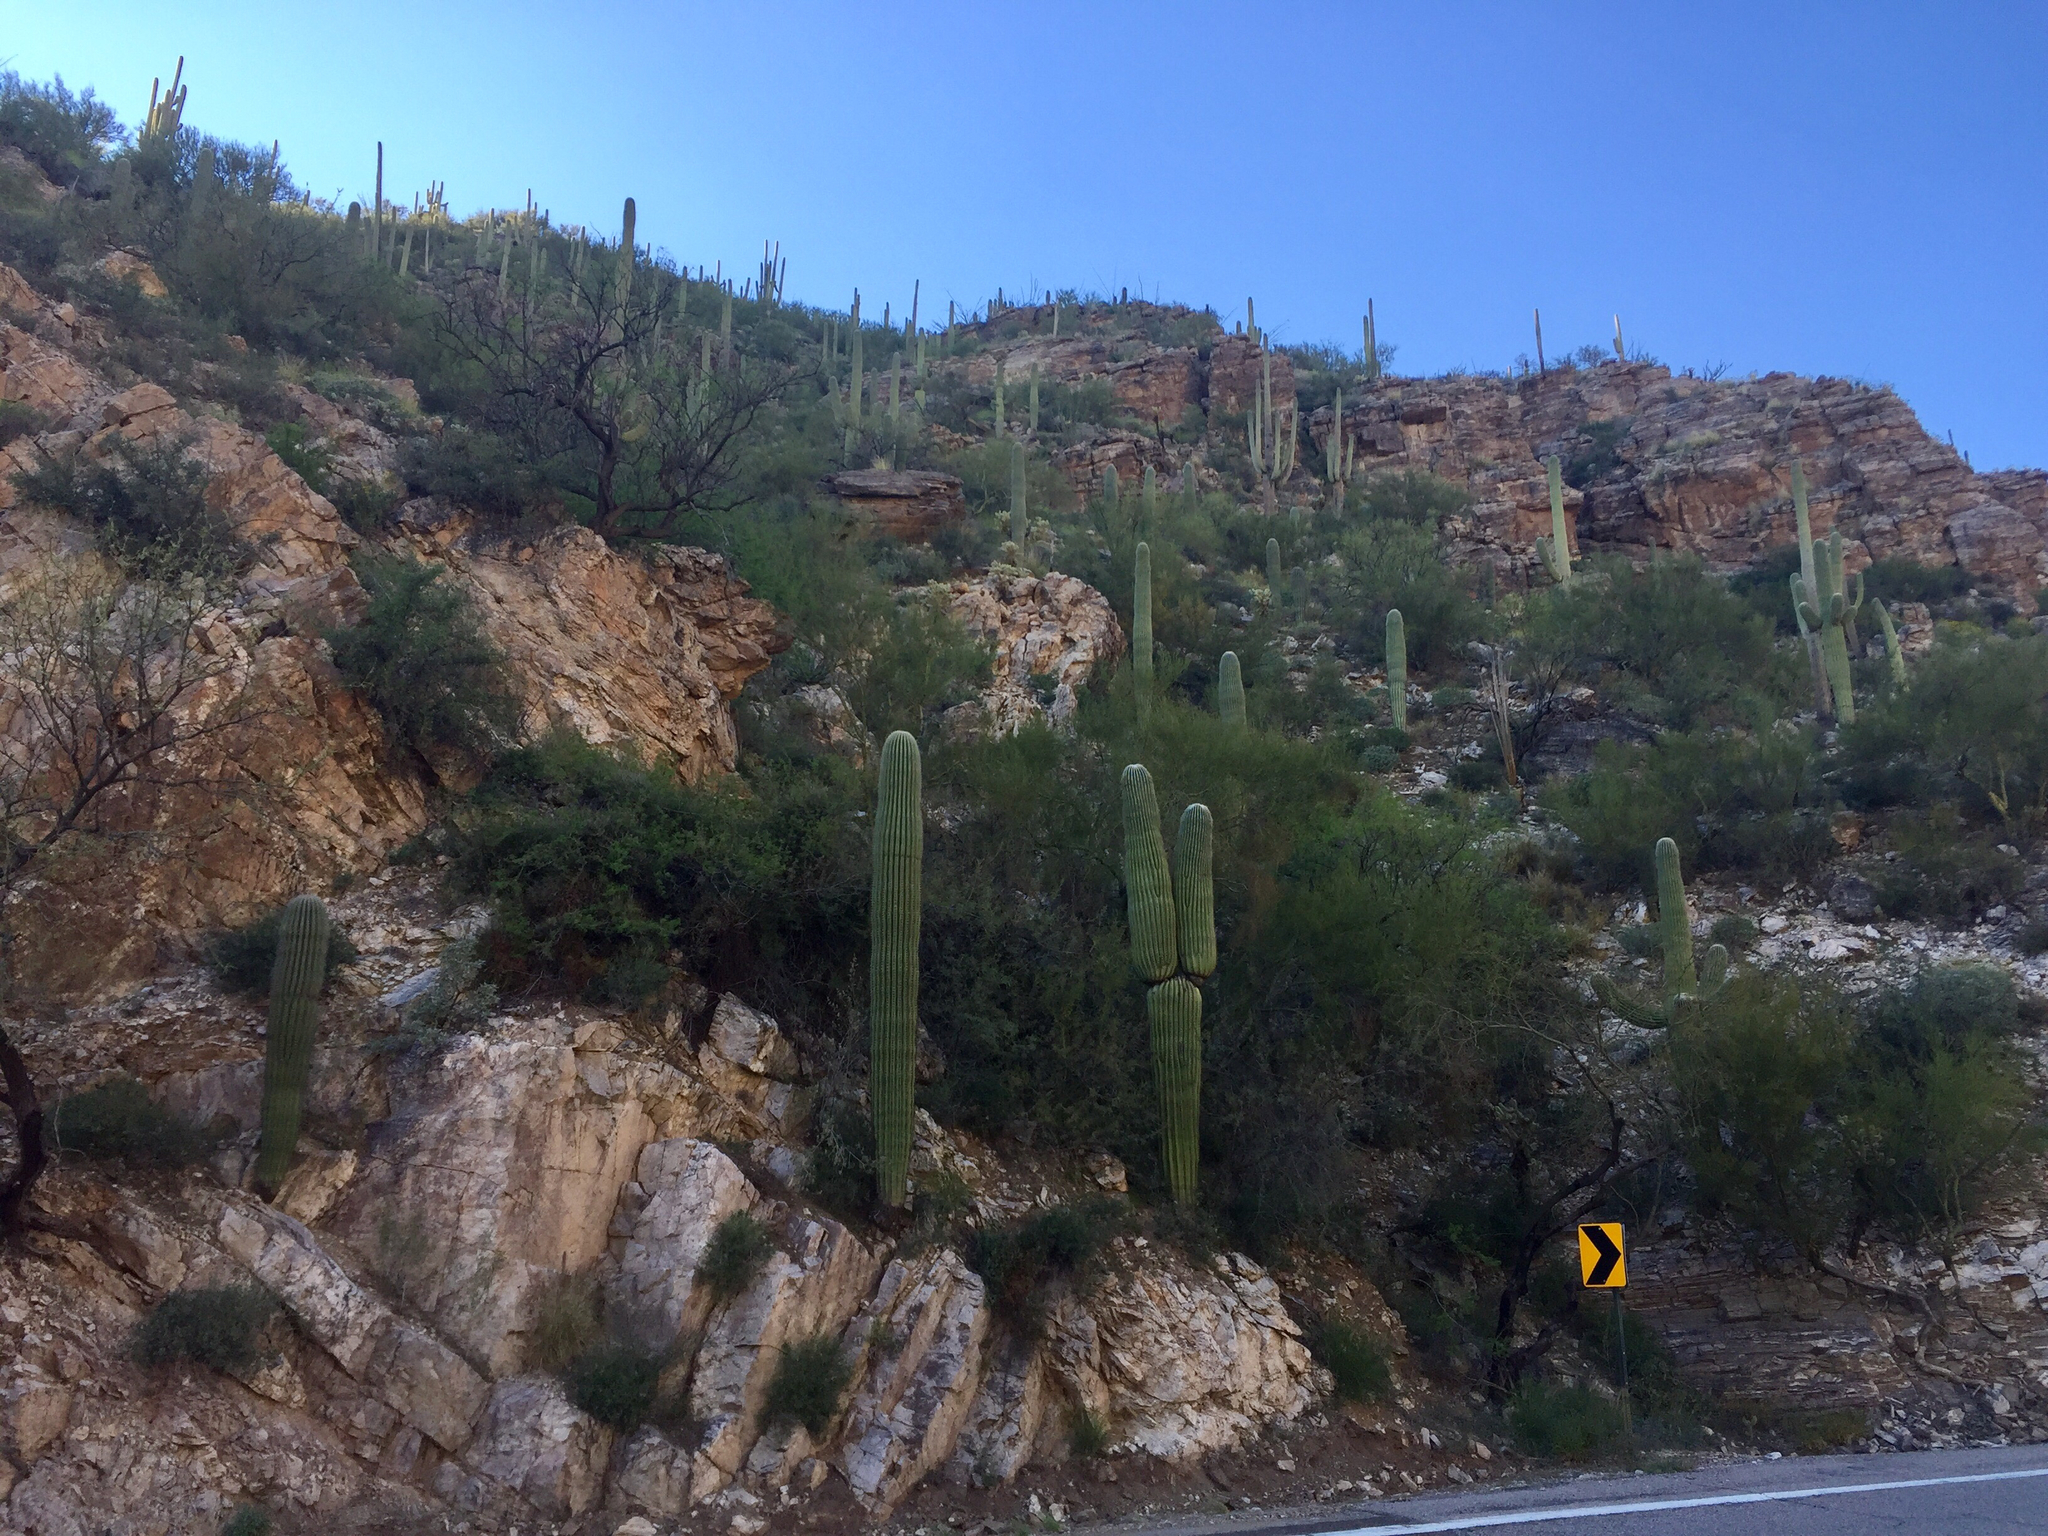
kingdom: Plantae
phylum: Tracheophyta
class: Magnoliopsida
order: Caryophyllales
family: Cactaceae
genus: Carnegiea
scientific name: Carnegiea gigantea
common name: Saguaro
